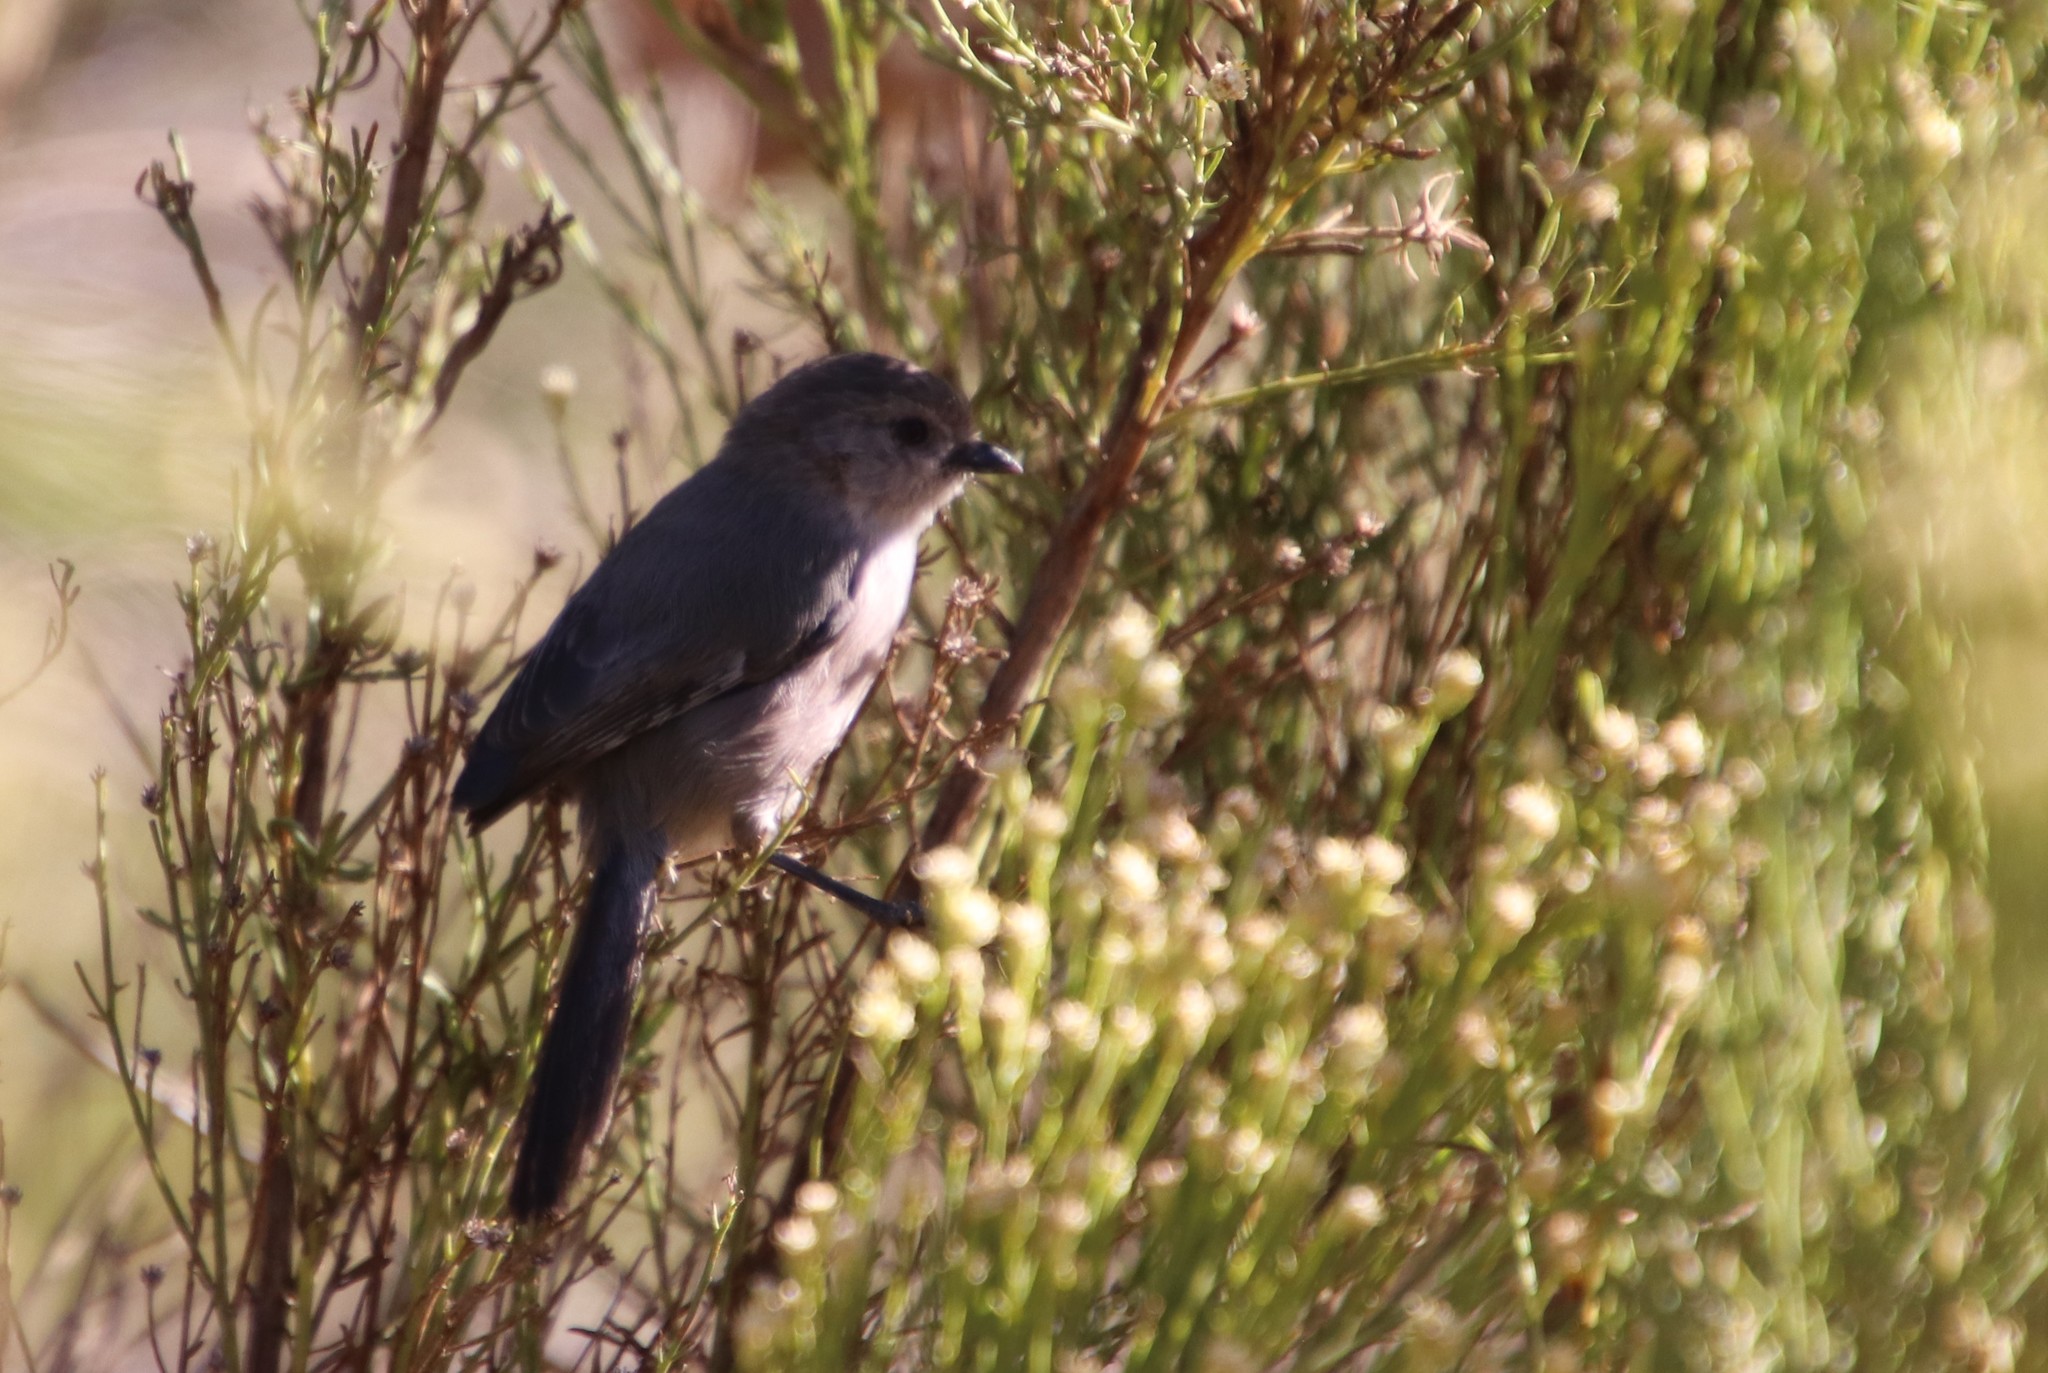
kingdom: Animalia
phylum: Chordata
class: Aves
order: Passeriformes
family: Aegithalidae
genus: Psaltriparus
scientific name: Psaltriparus minimus
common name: American bushtit
